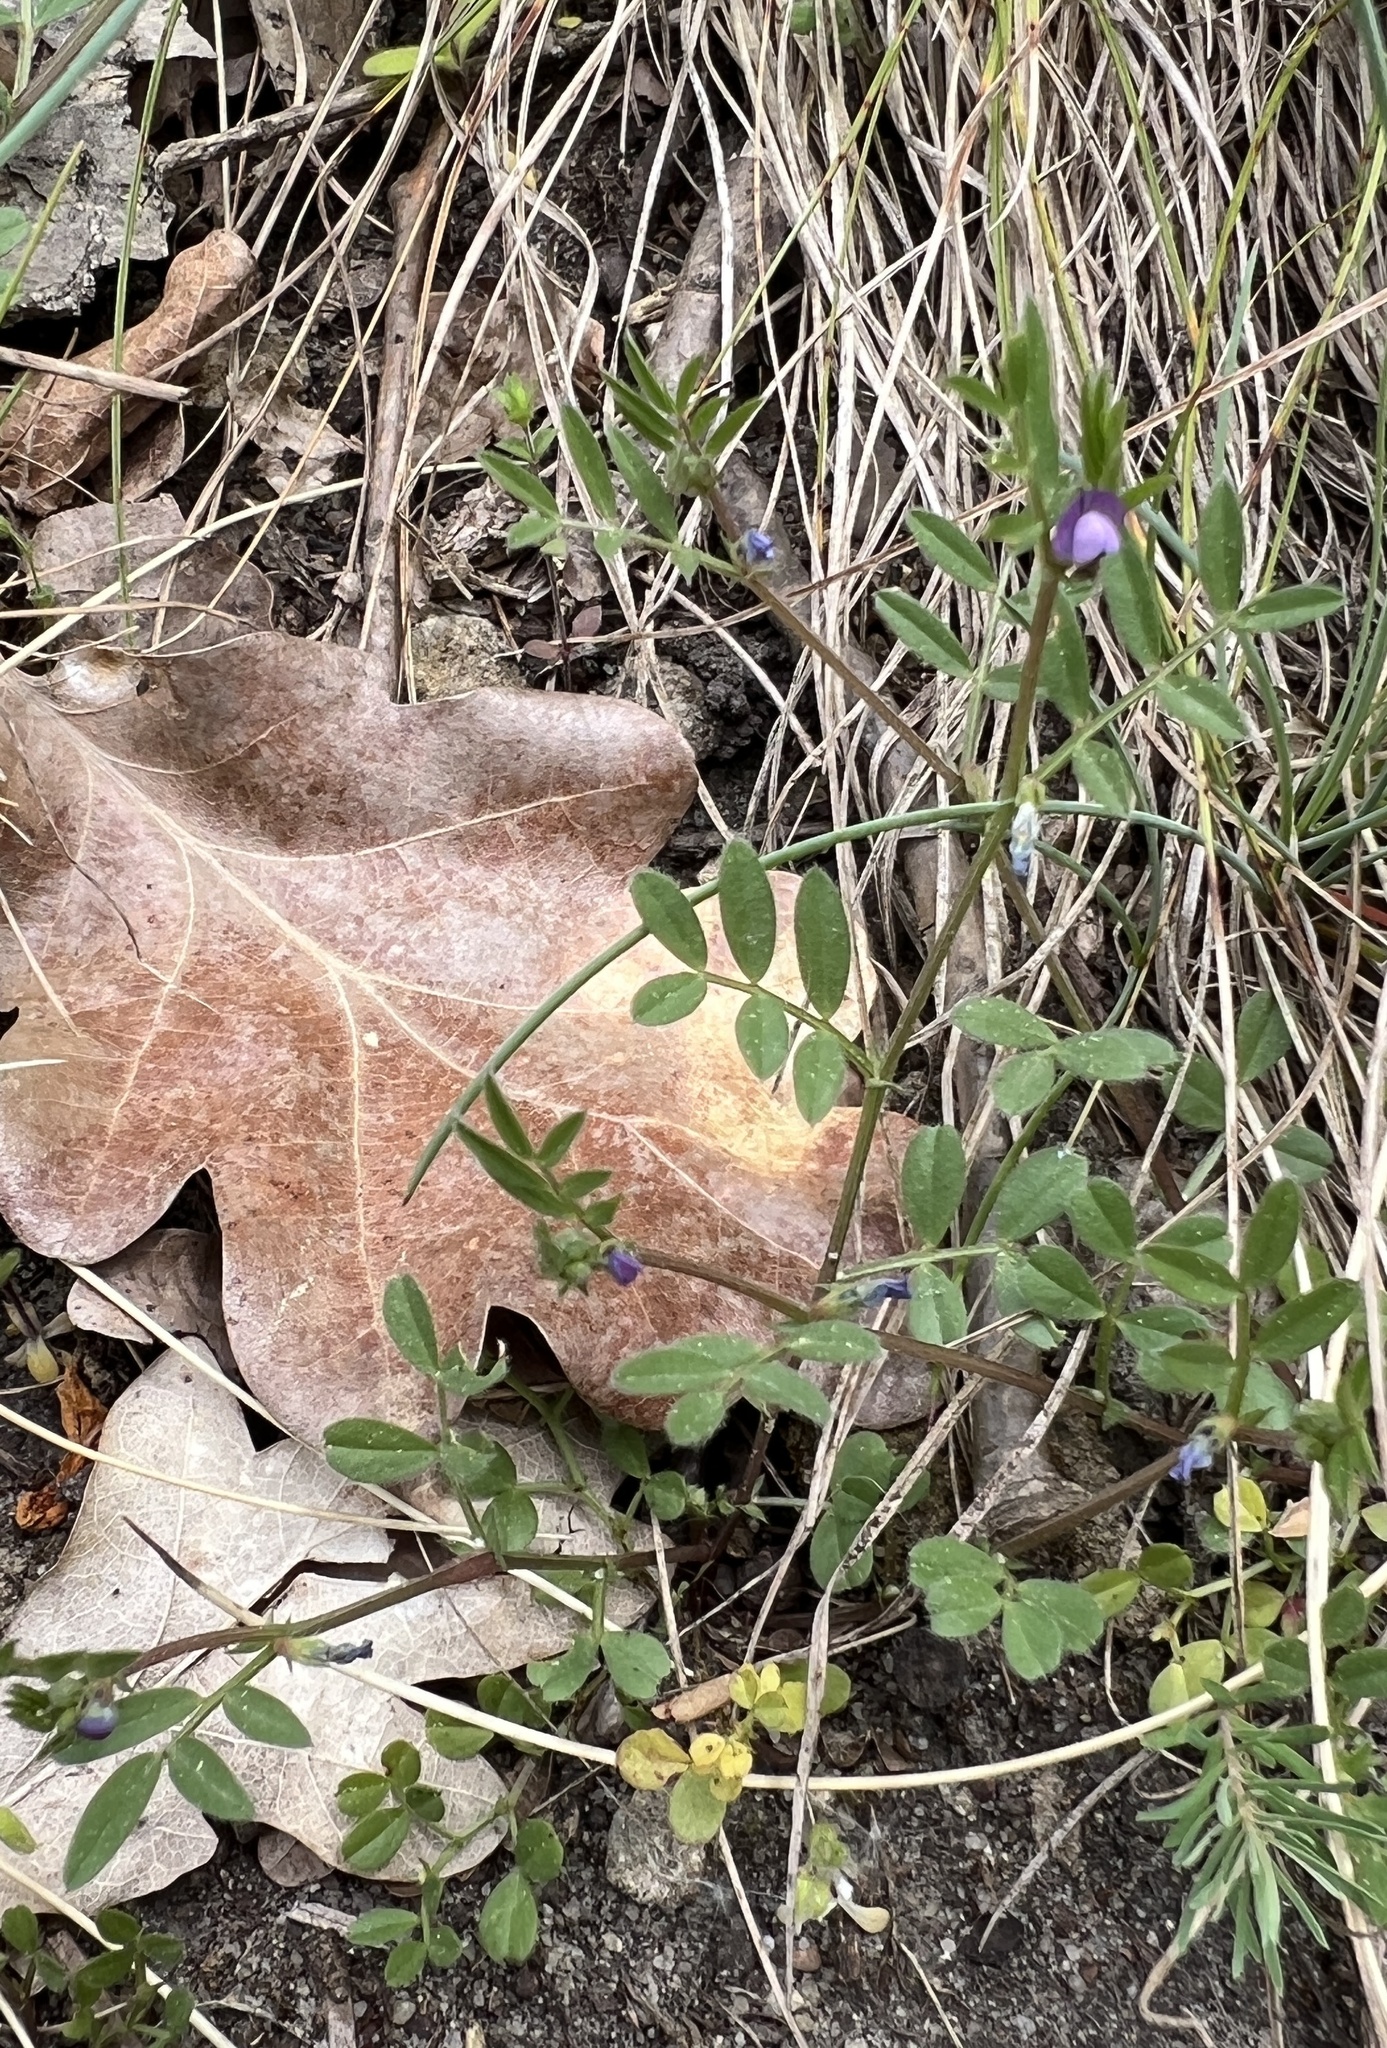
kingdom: Plantae
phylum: Tracheophyta
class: Magnoliopsida
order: Fabales
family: Fabaceae
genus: Vicia
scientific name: Vicia lathyroides
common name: Spring vetch
